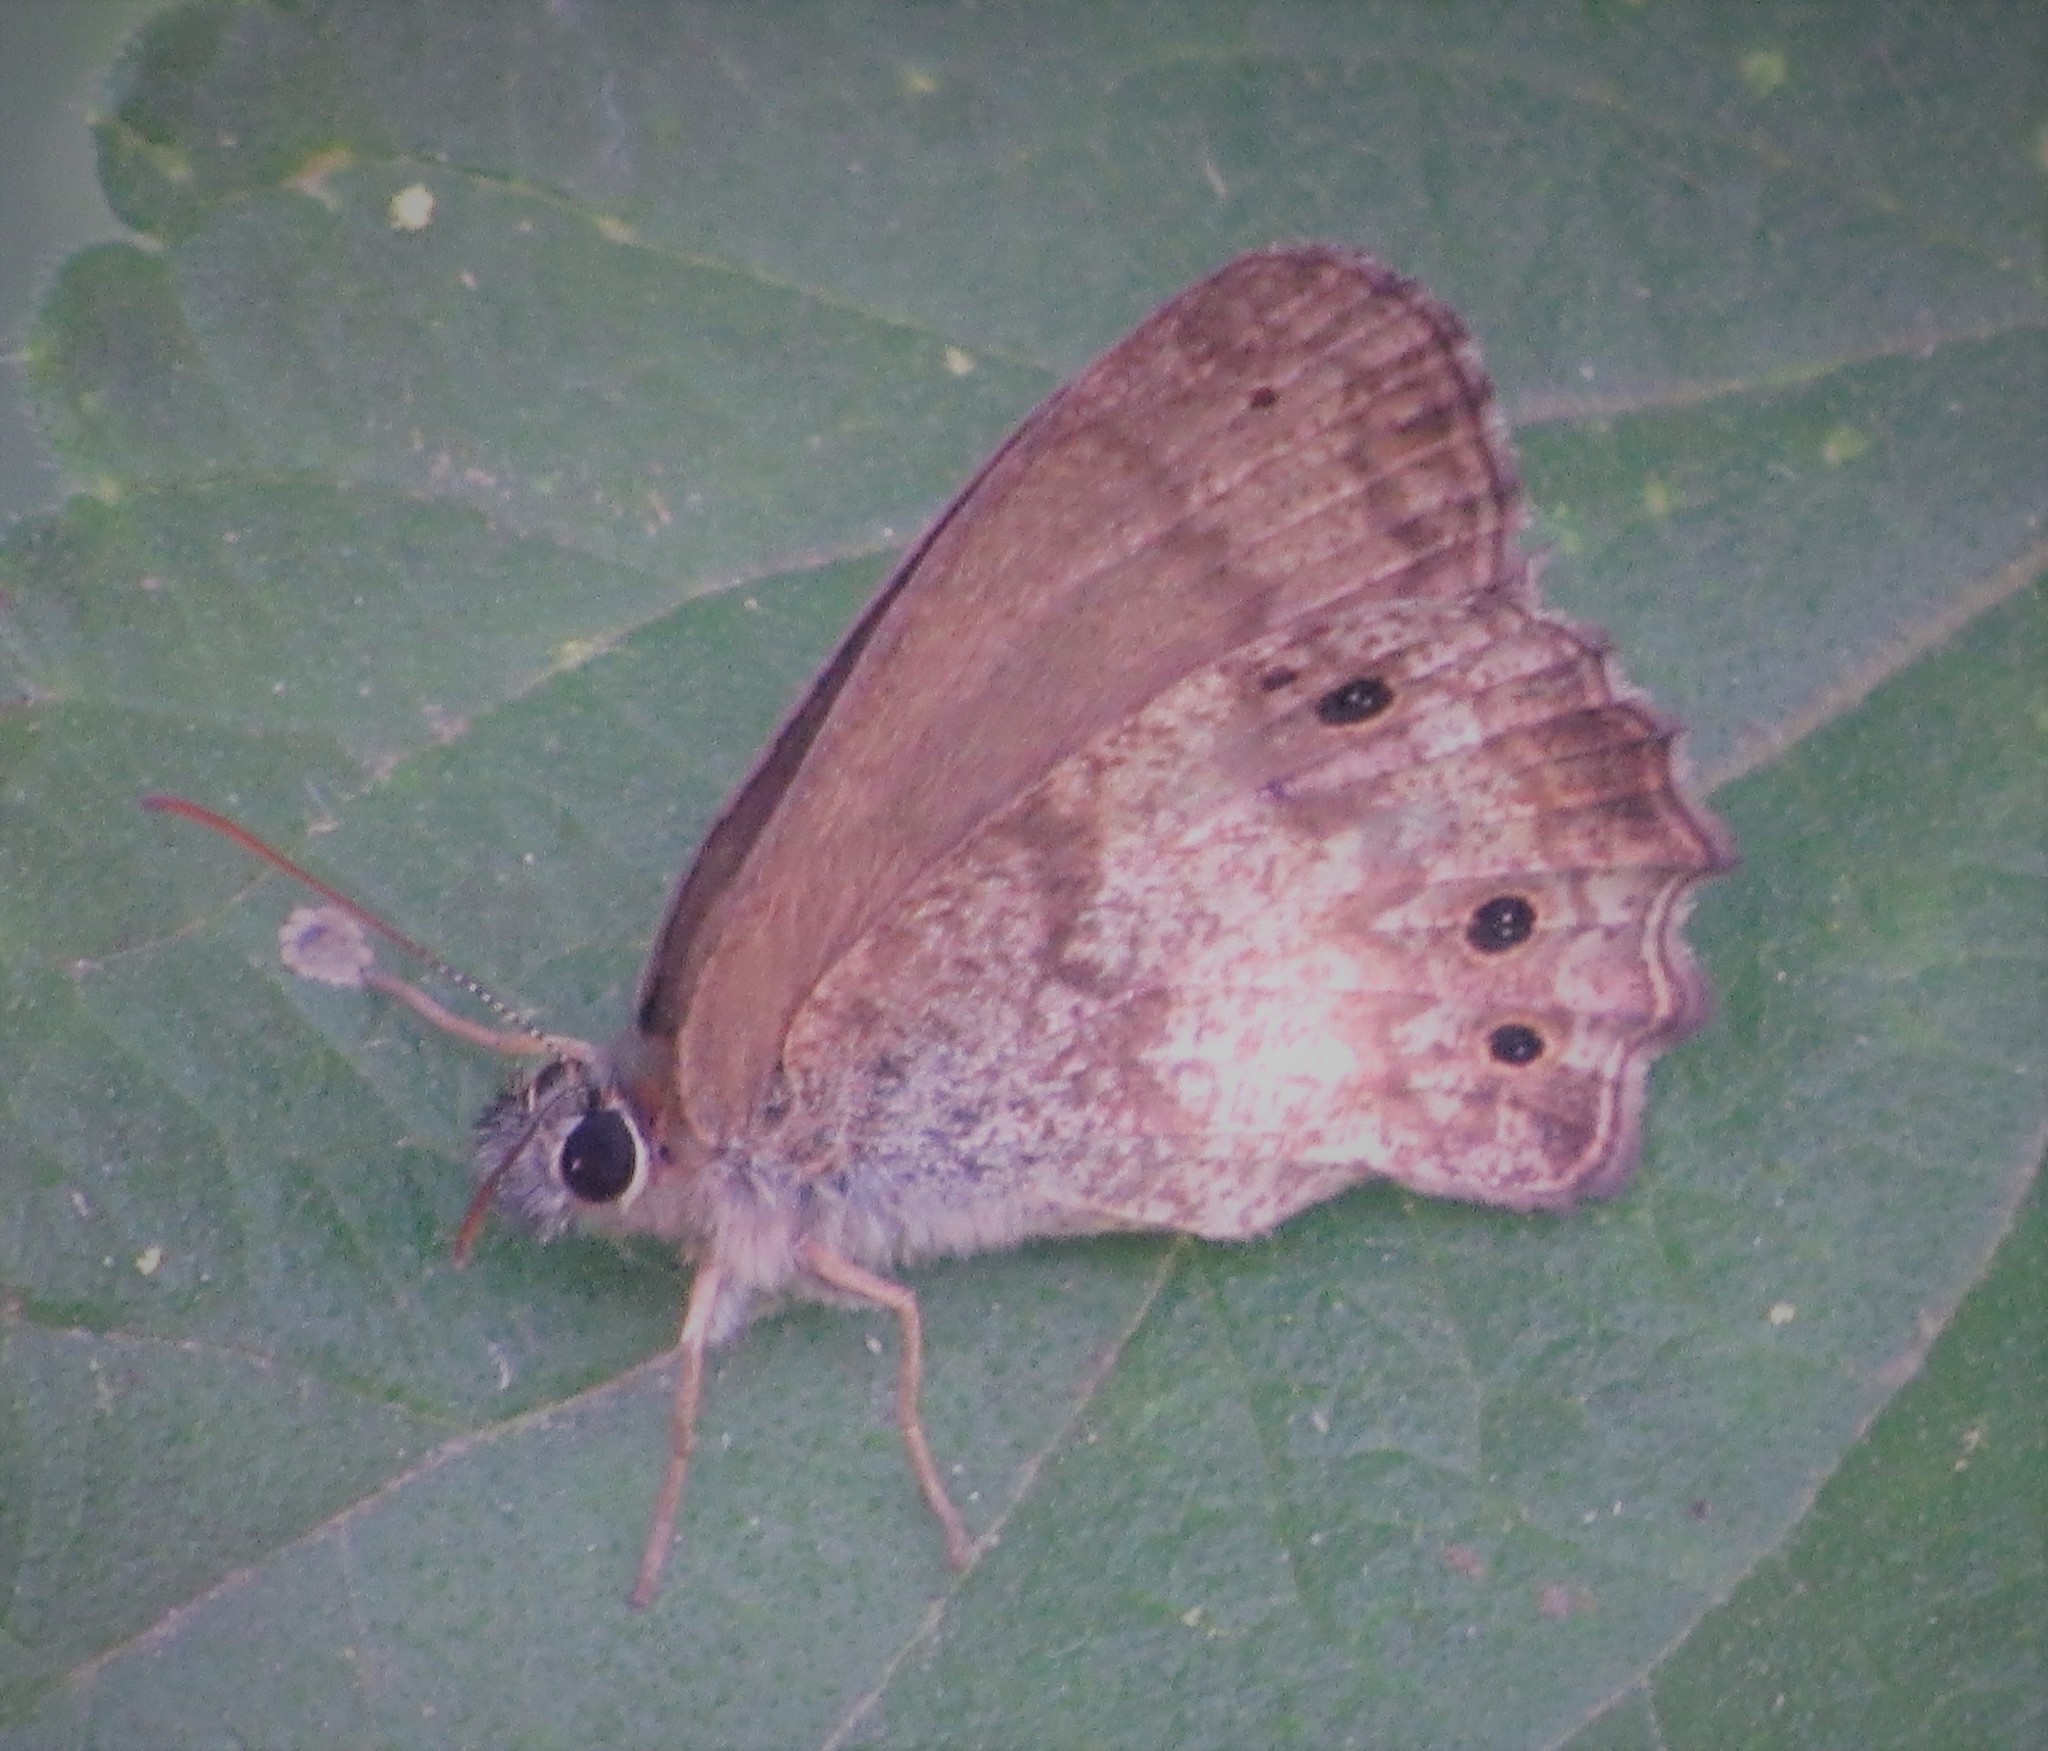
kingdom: Animalia
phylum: Arthropoda
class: Insecta
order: Lepidoptera
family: Nymphalidae
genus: Carminda
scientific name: Carminda paeon
